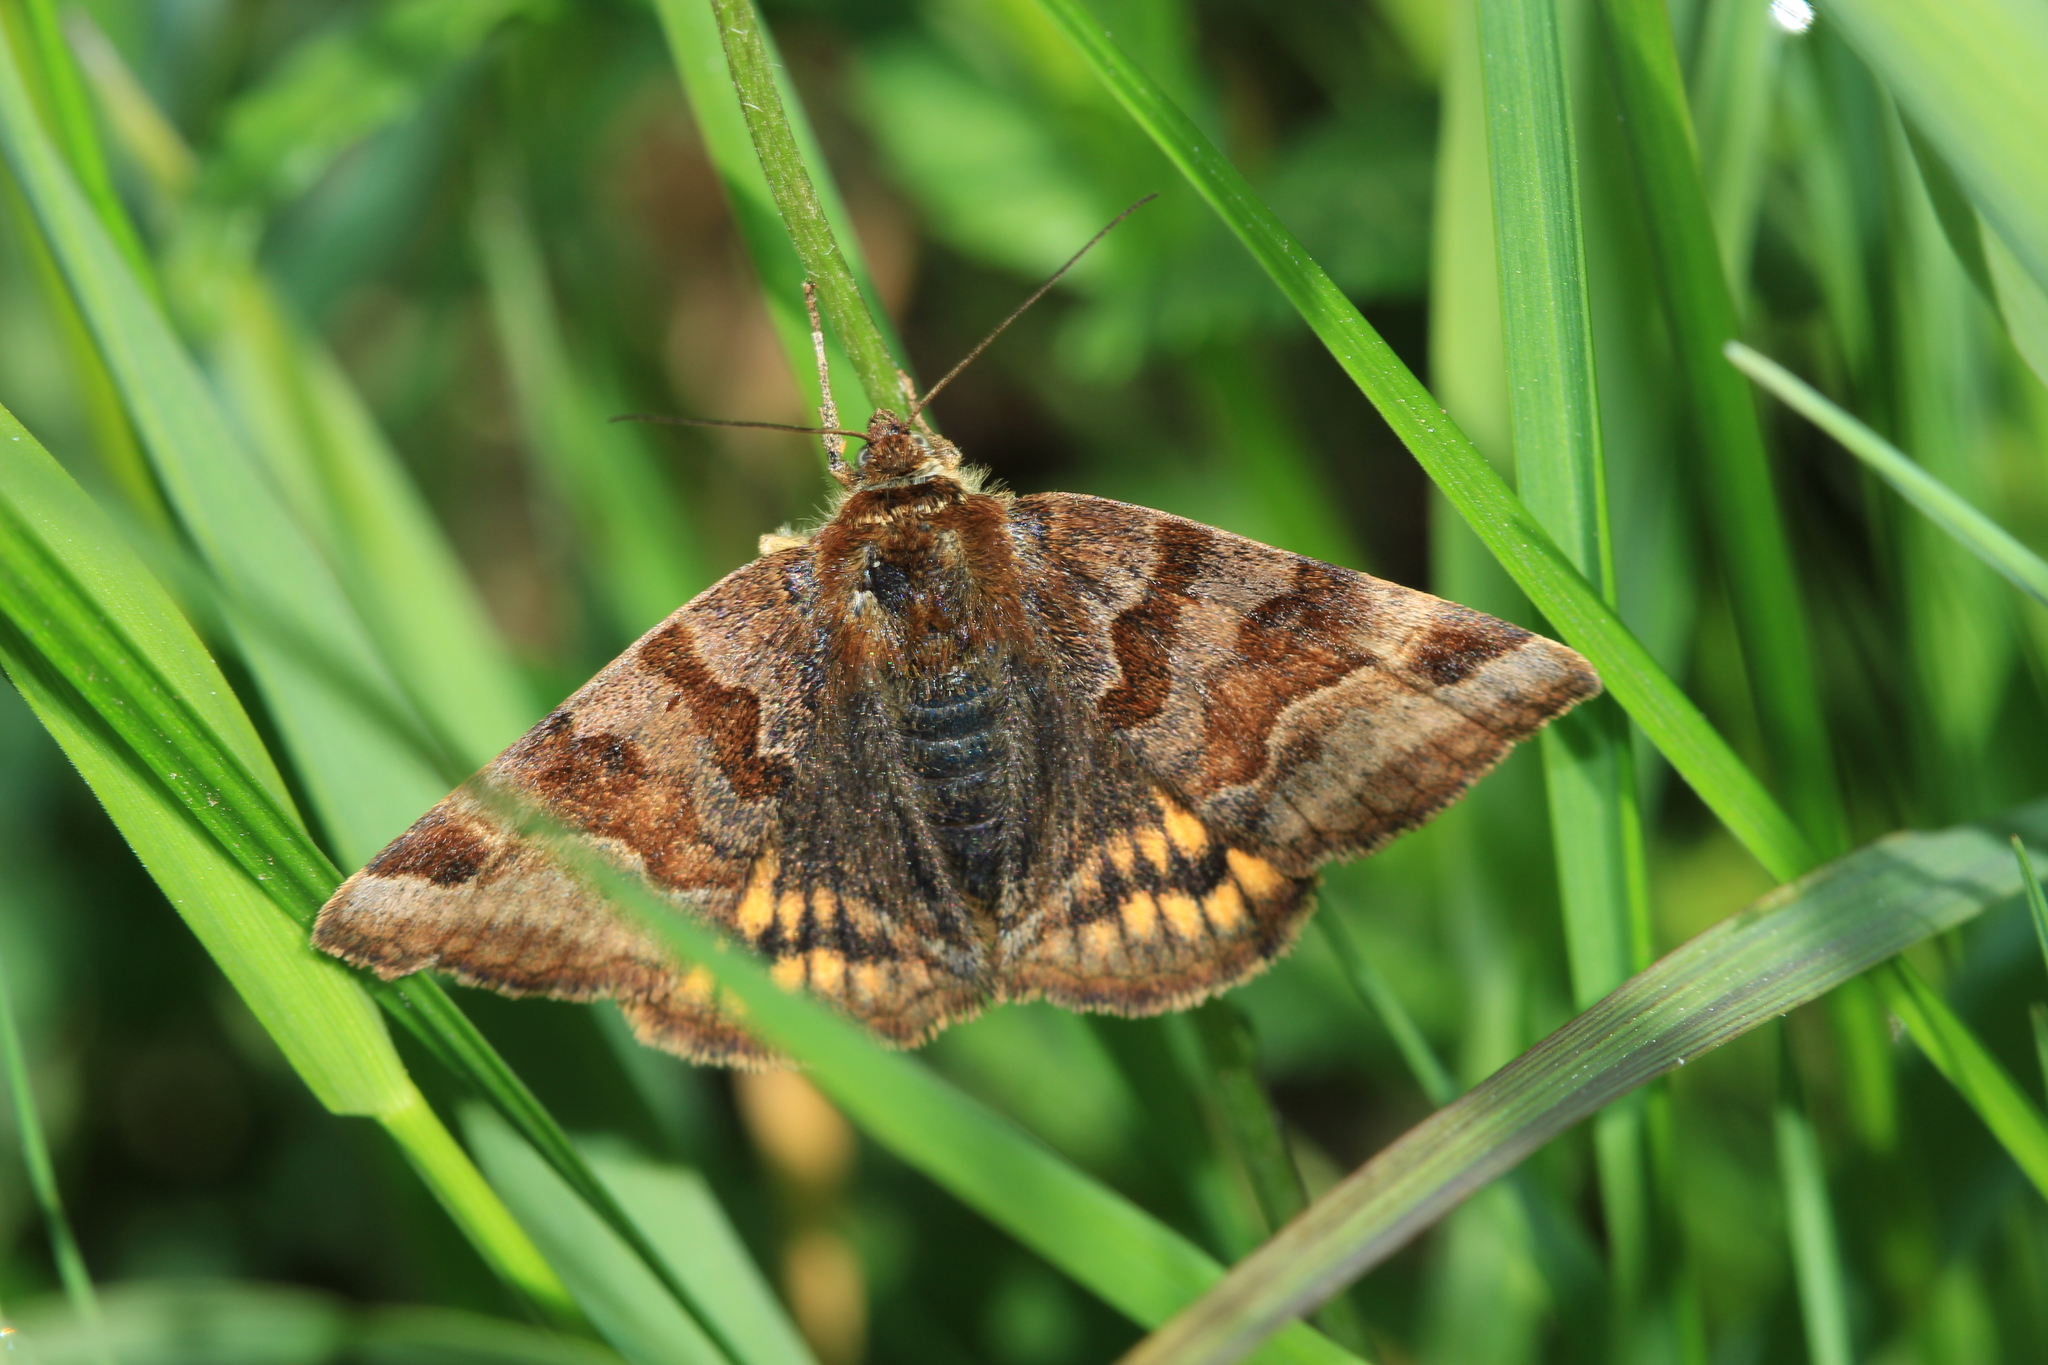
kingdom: Animalia
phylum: Arthropoda
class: Insecta
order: Lepidoptera
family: Erebidae
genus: Euclidia
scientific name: Euclidia glyphica
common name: Burnet companion
